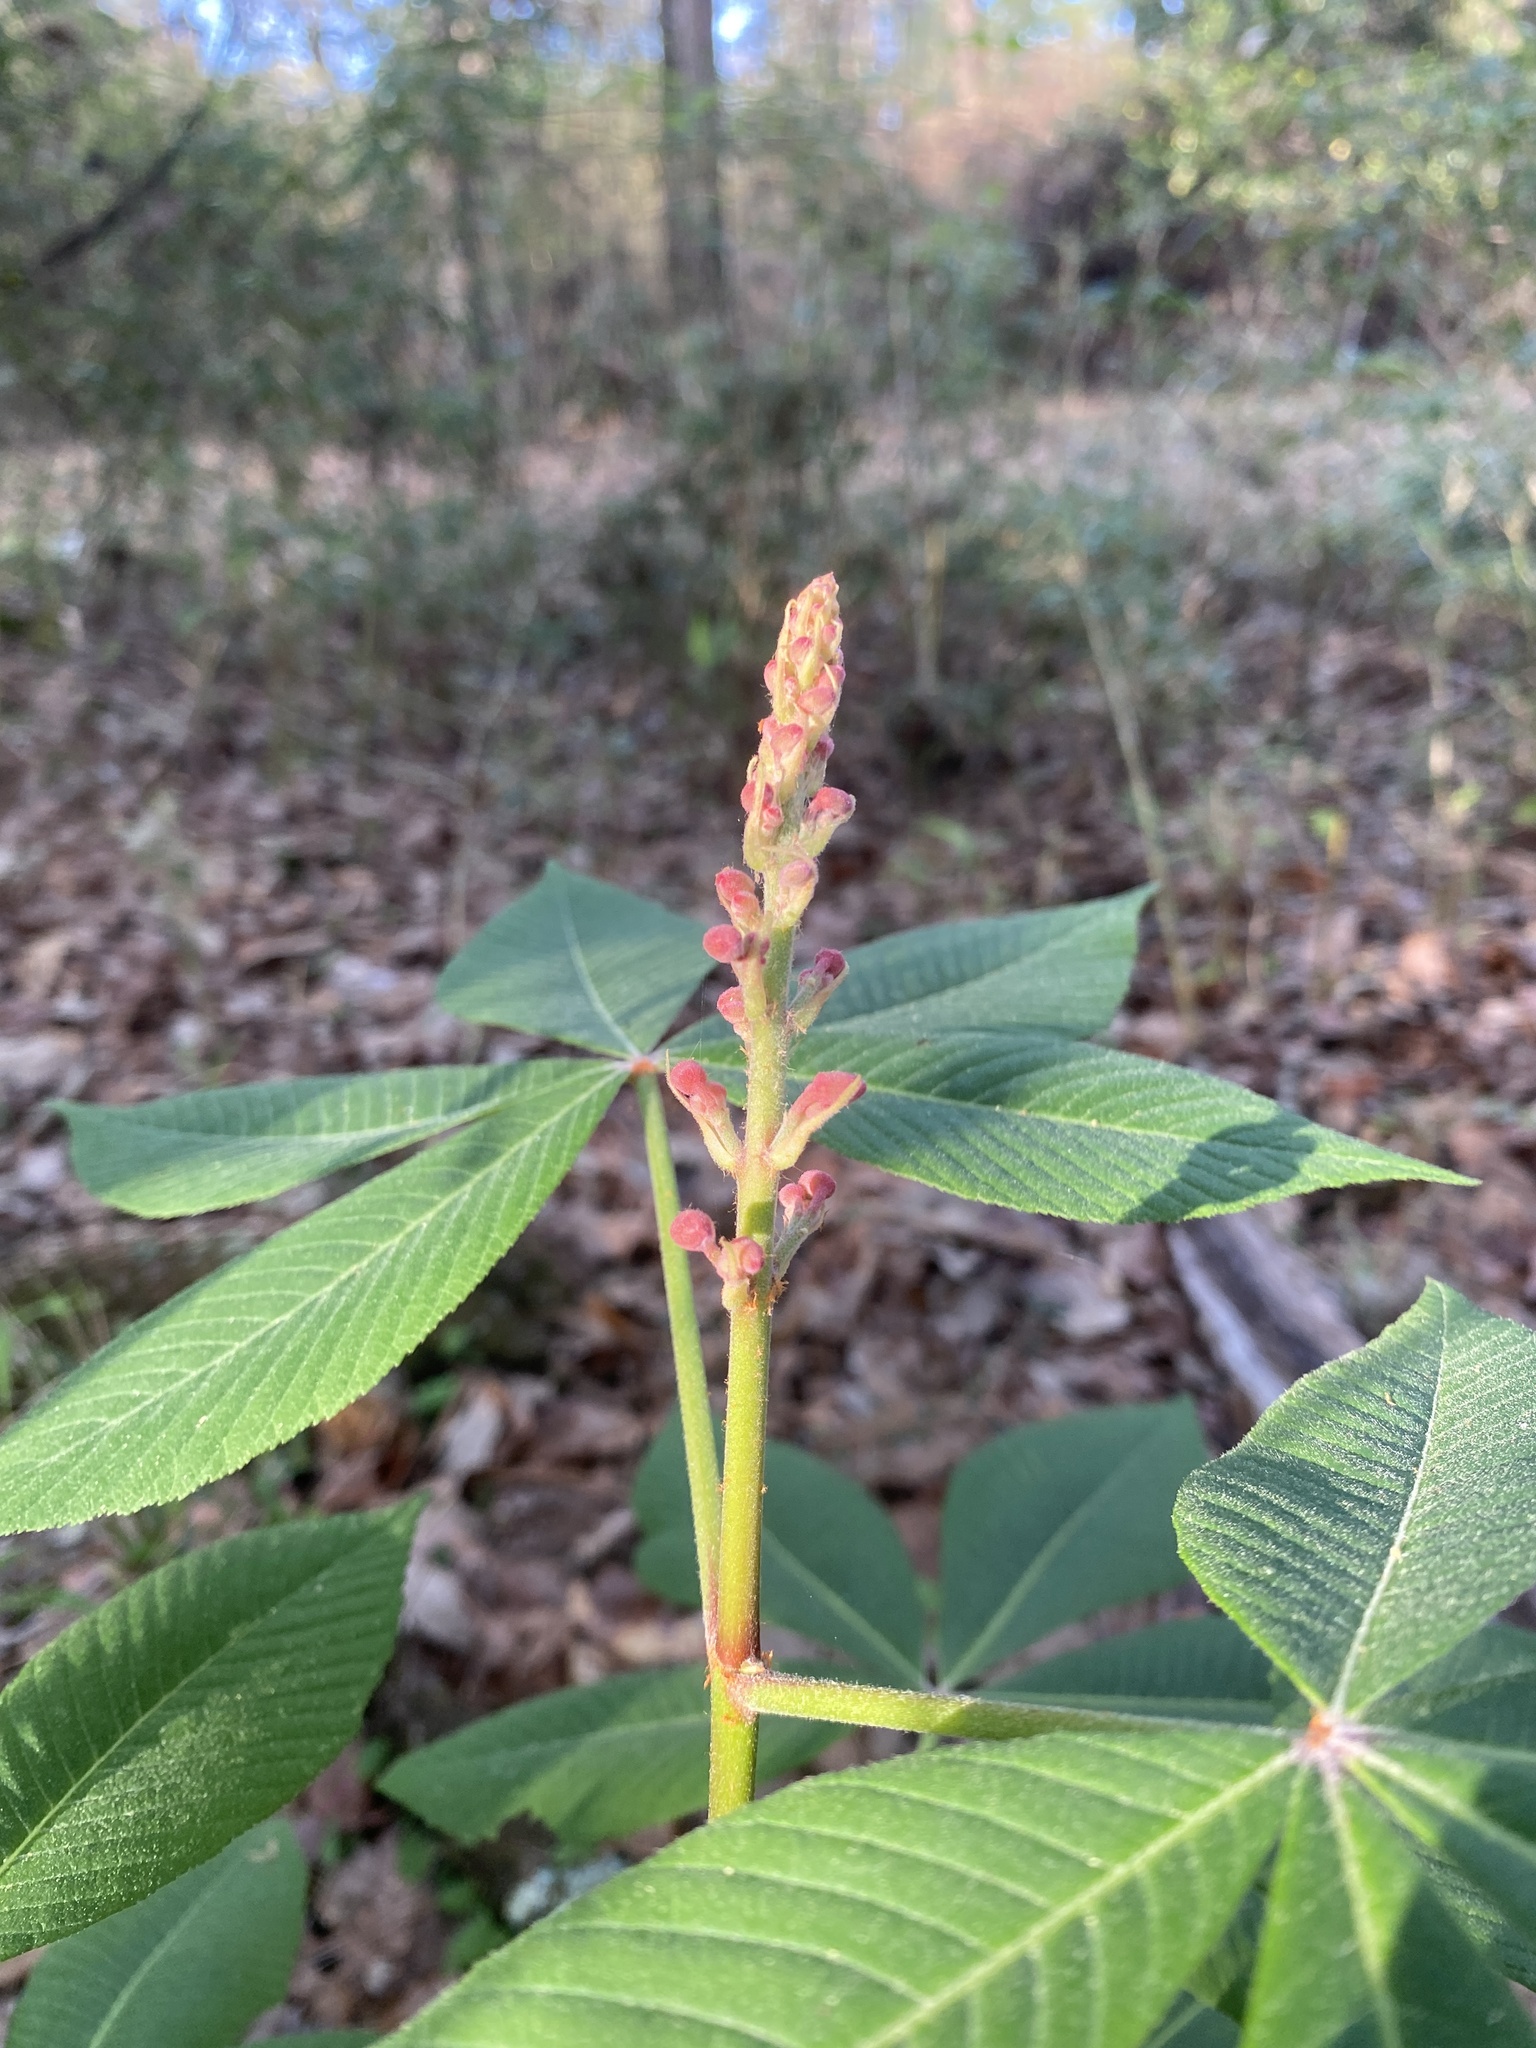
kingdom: Plantae
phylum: Tracheophyta
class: Magnoliopsida
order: Sapindales
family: Sapindaceae
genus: Aesculus
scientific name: Aesculus pavia
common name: Red buckeye
